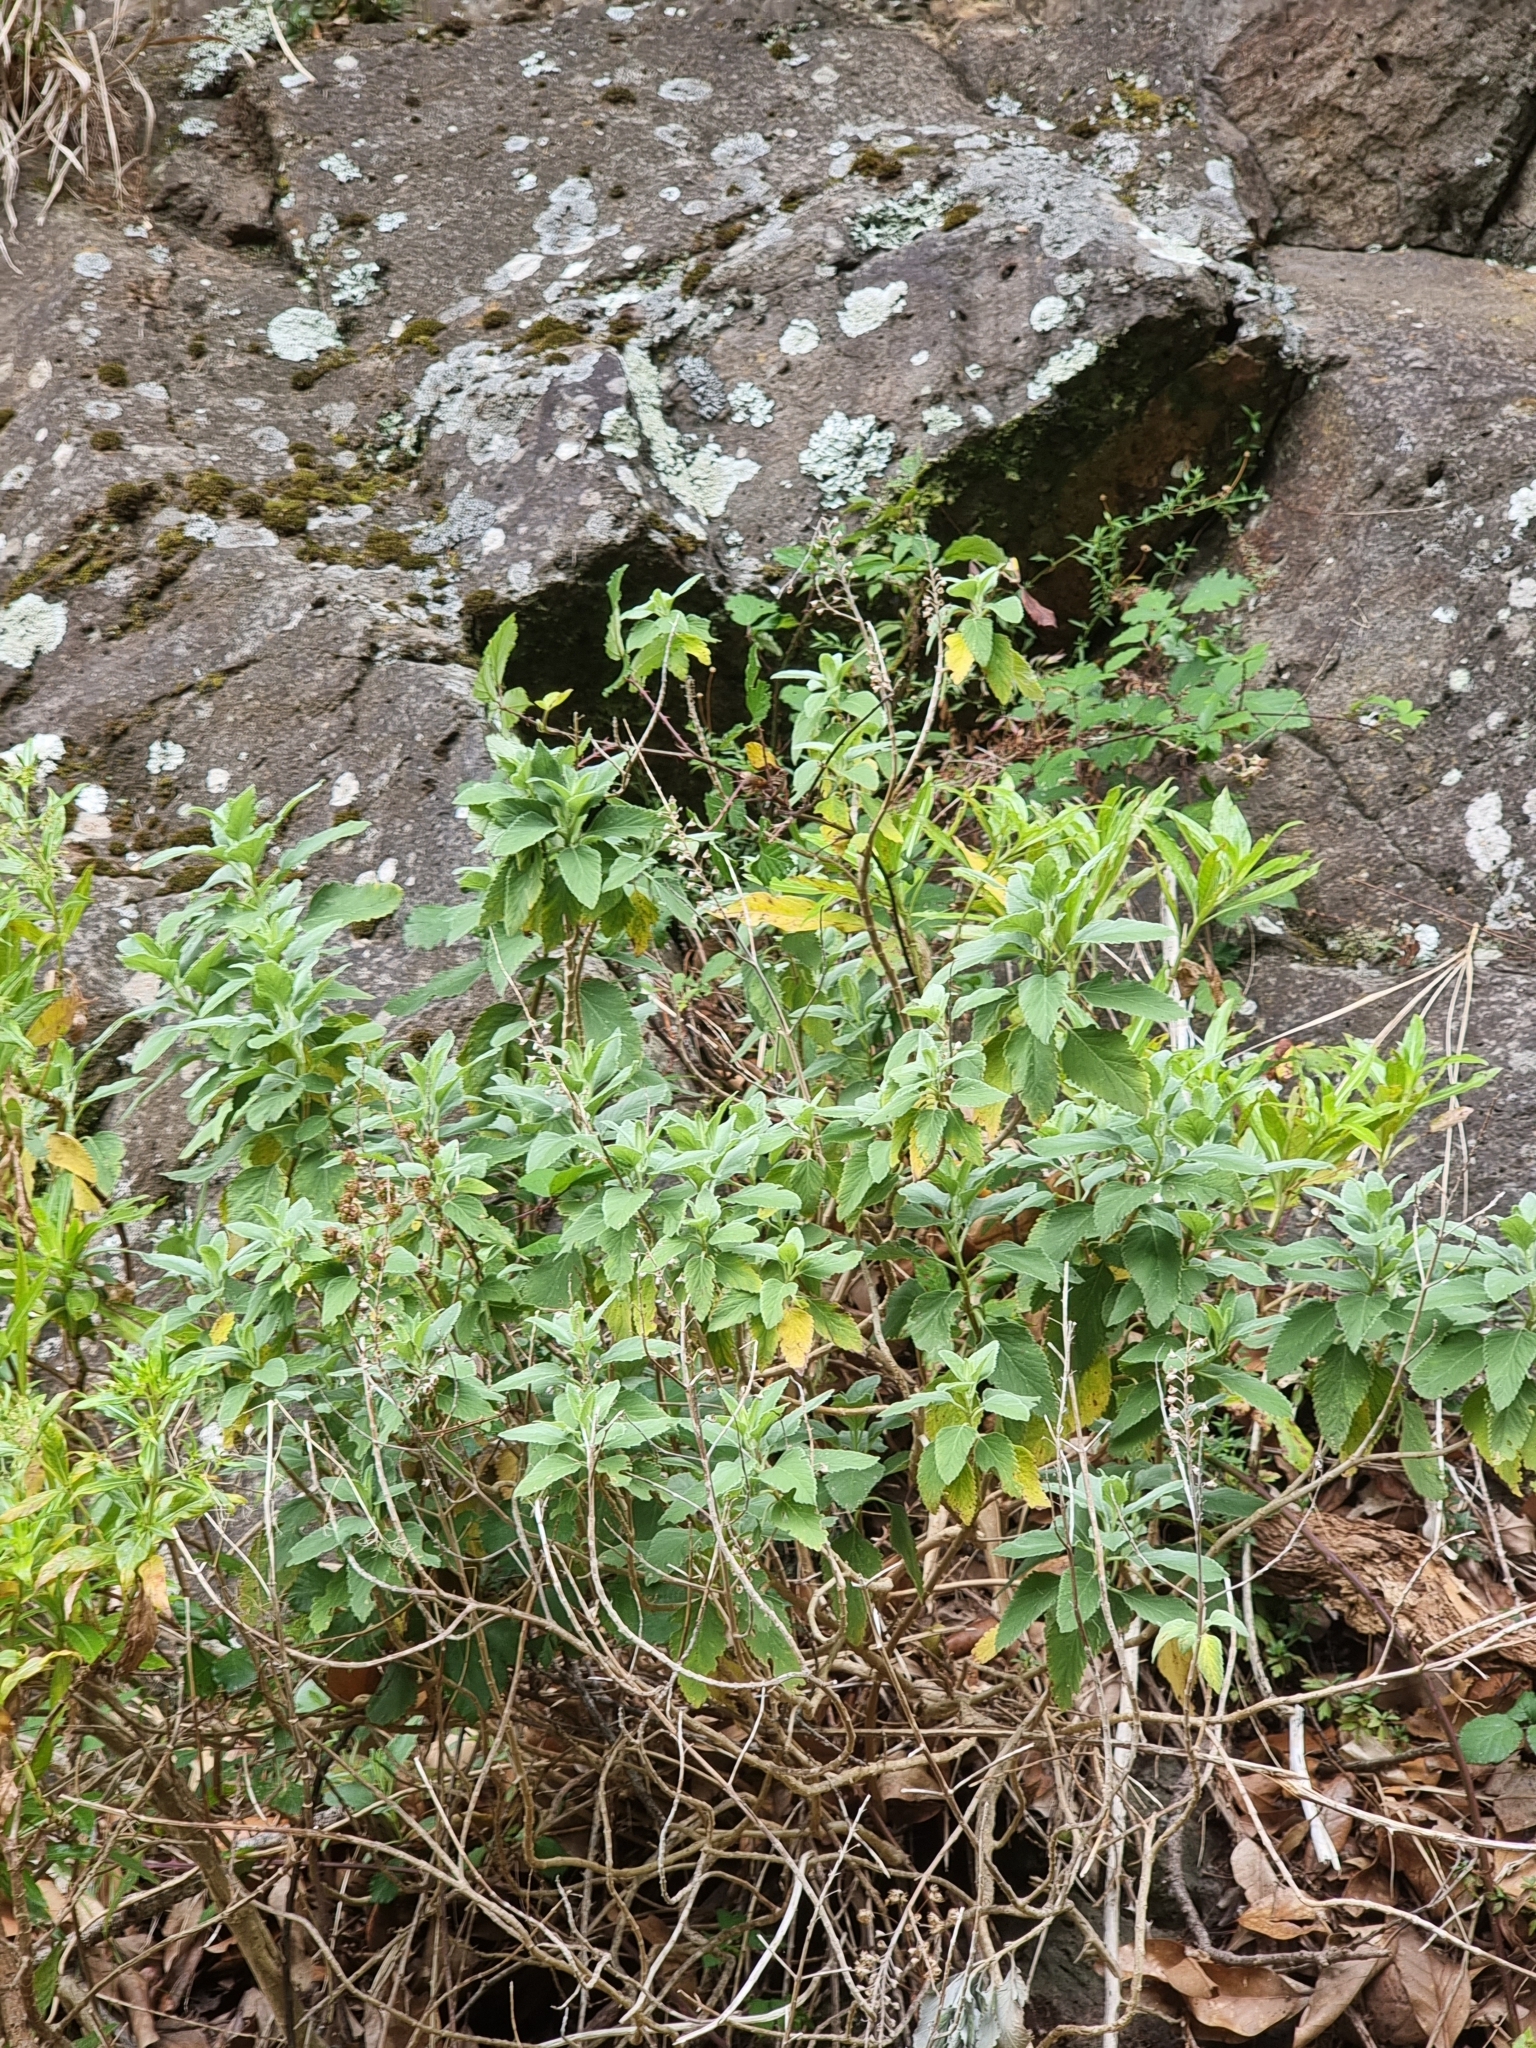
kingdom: Plantae
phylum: Tracheophyta
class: Magnoliopsida
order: Lamiales
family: Lamiaceae
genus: Teucrium
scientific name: Teucrium betonicum
